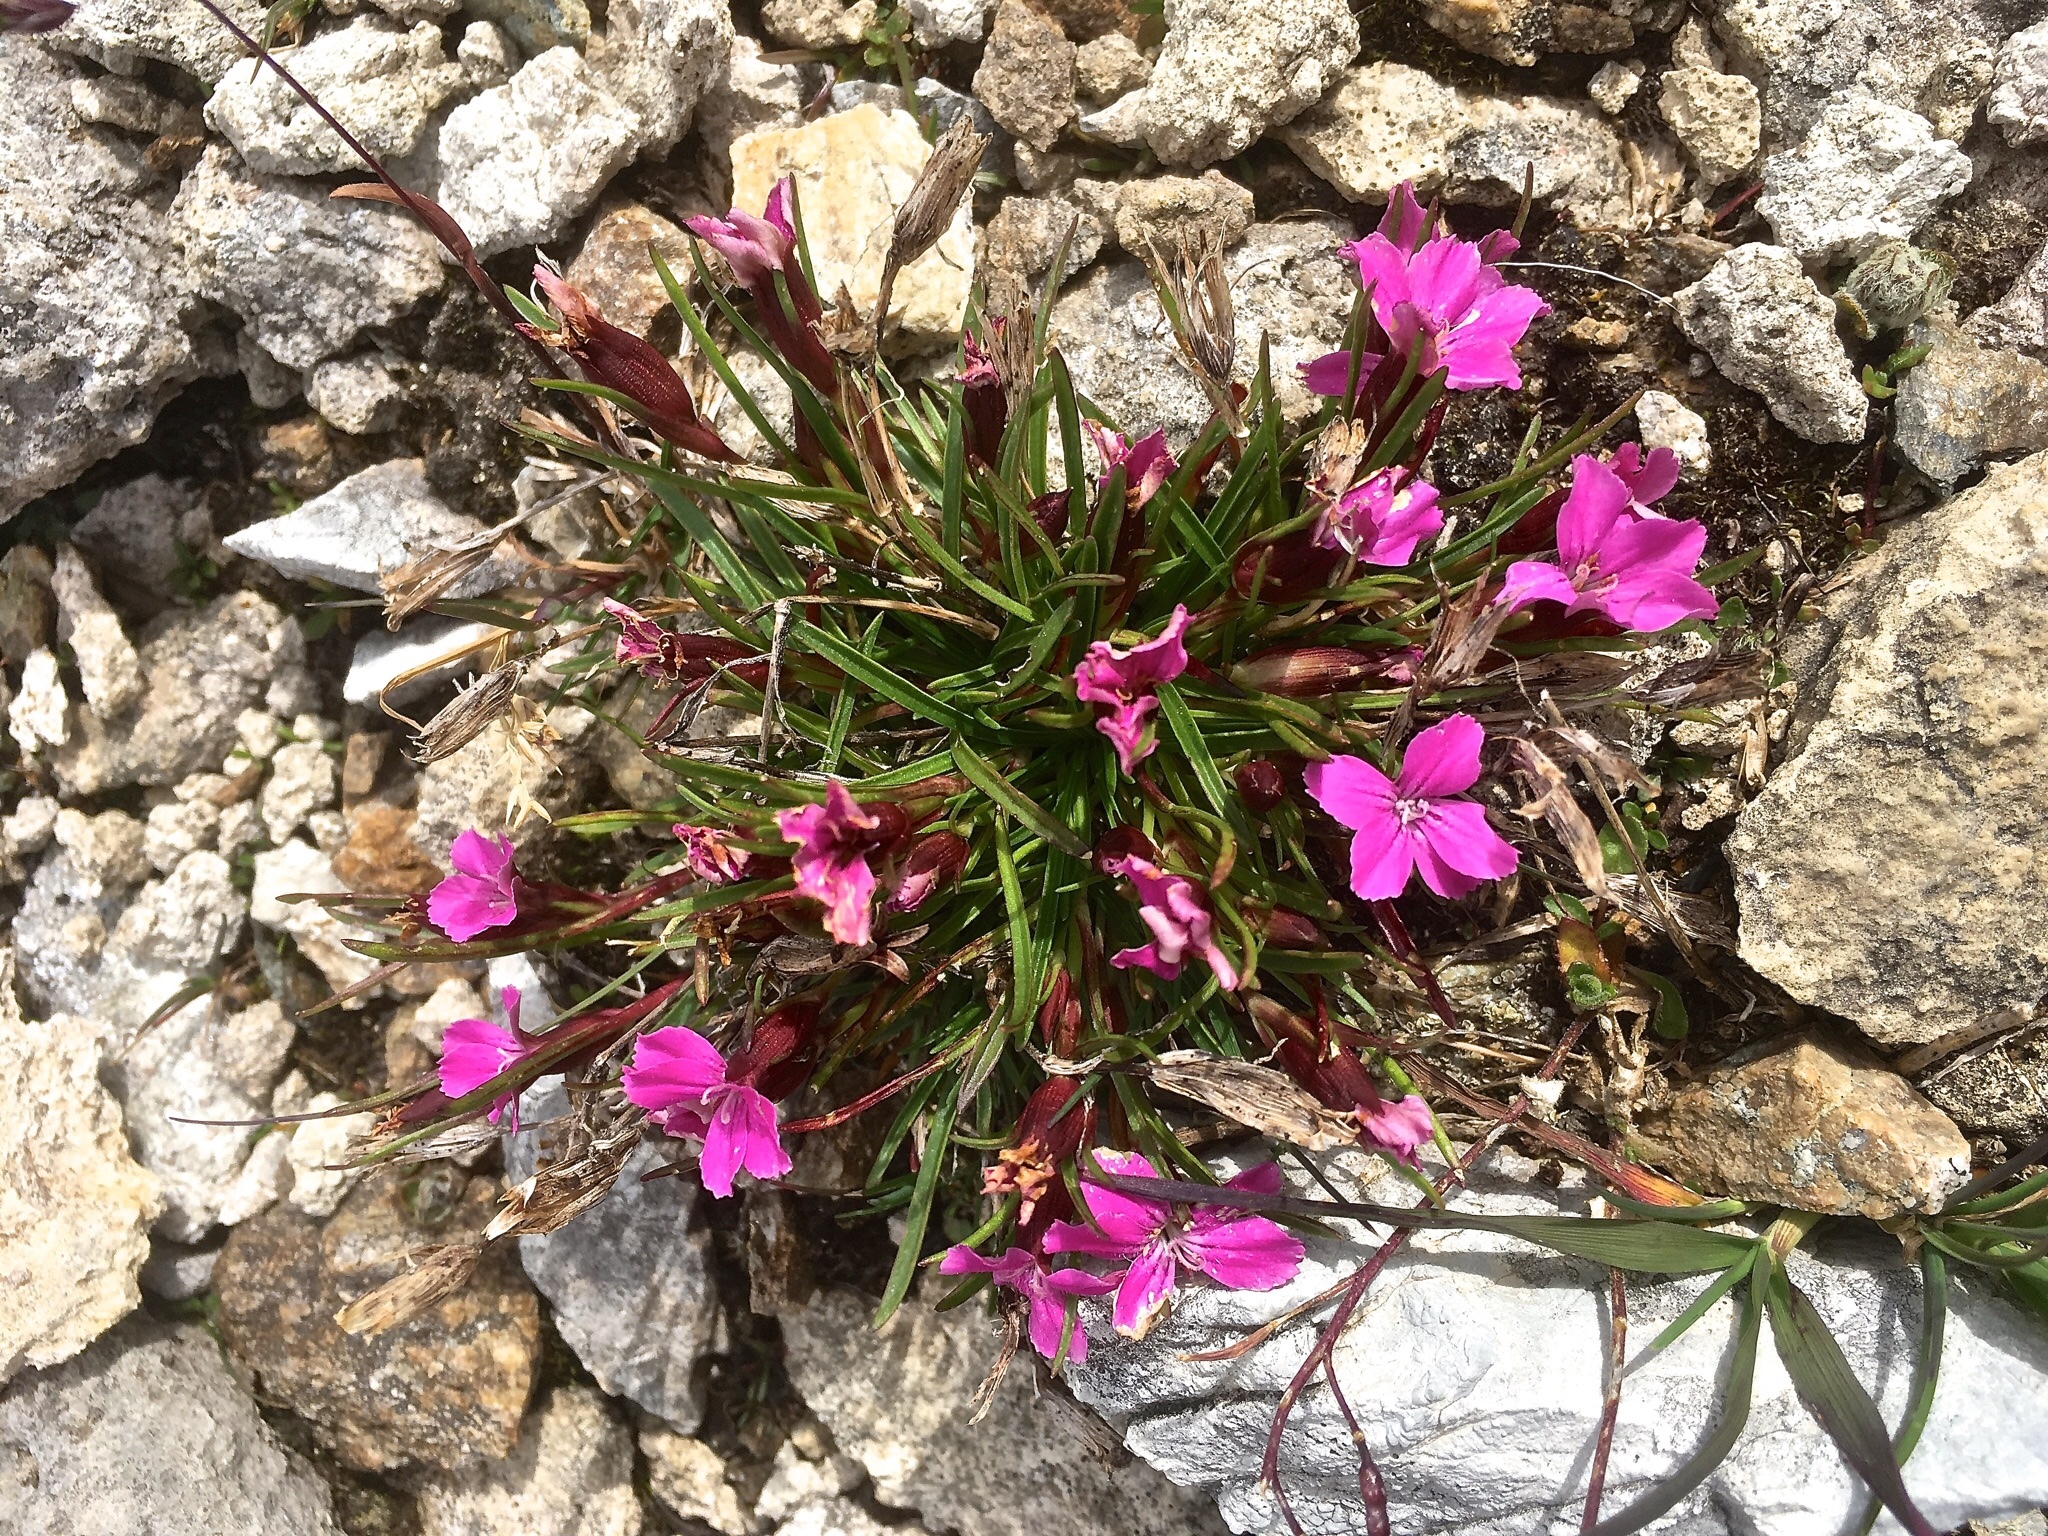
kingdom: Plantae
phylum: Tracheophyta
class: Magnoliopsida
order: Caryophyllales
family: Caryophyllaceae
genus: Dianthus
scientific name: Dianthus glacialis
